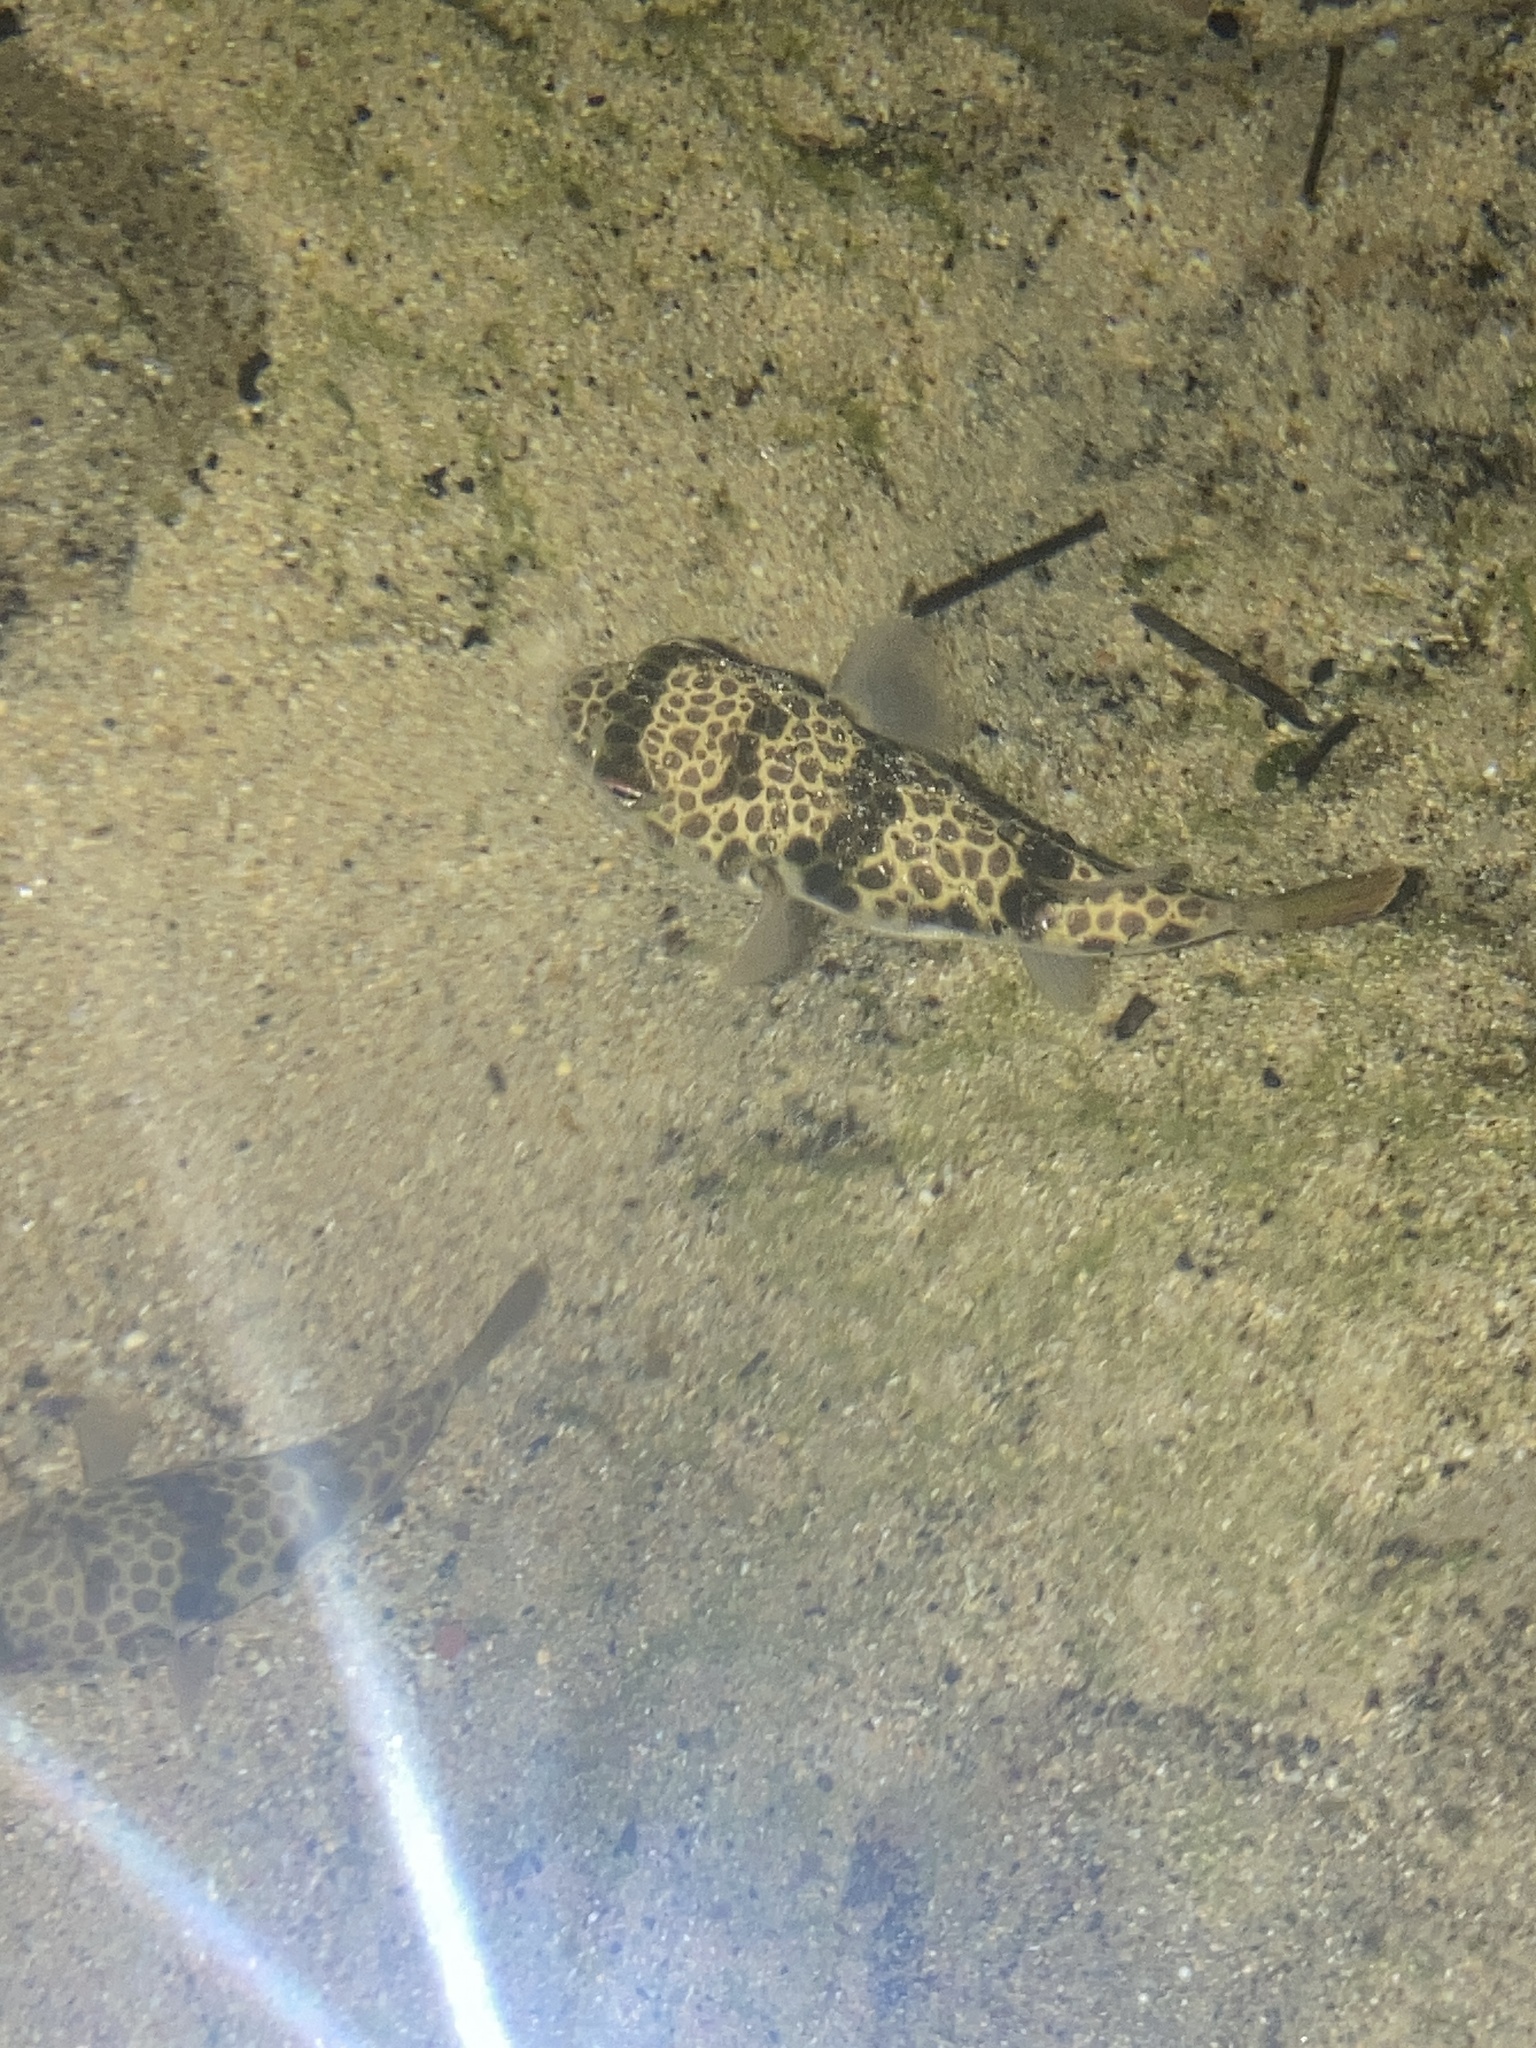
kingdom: Animalia
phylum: Chordata
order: Tetraodontiformes
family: Tetraodontidae
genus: Tetractenos
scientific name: Tetractenos glaber
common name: Smooth toadfish
